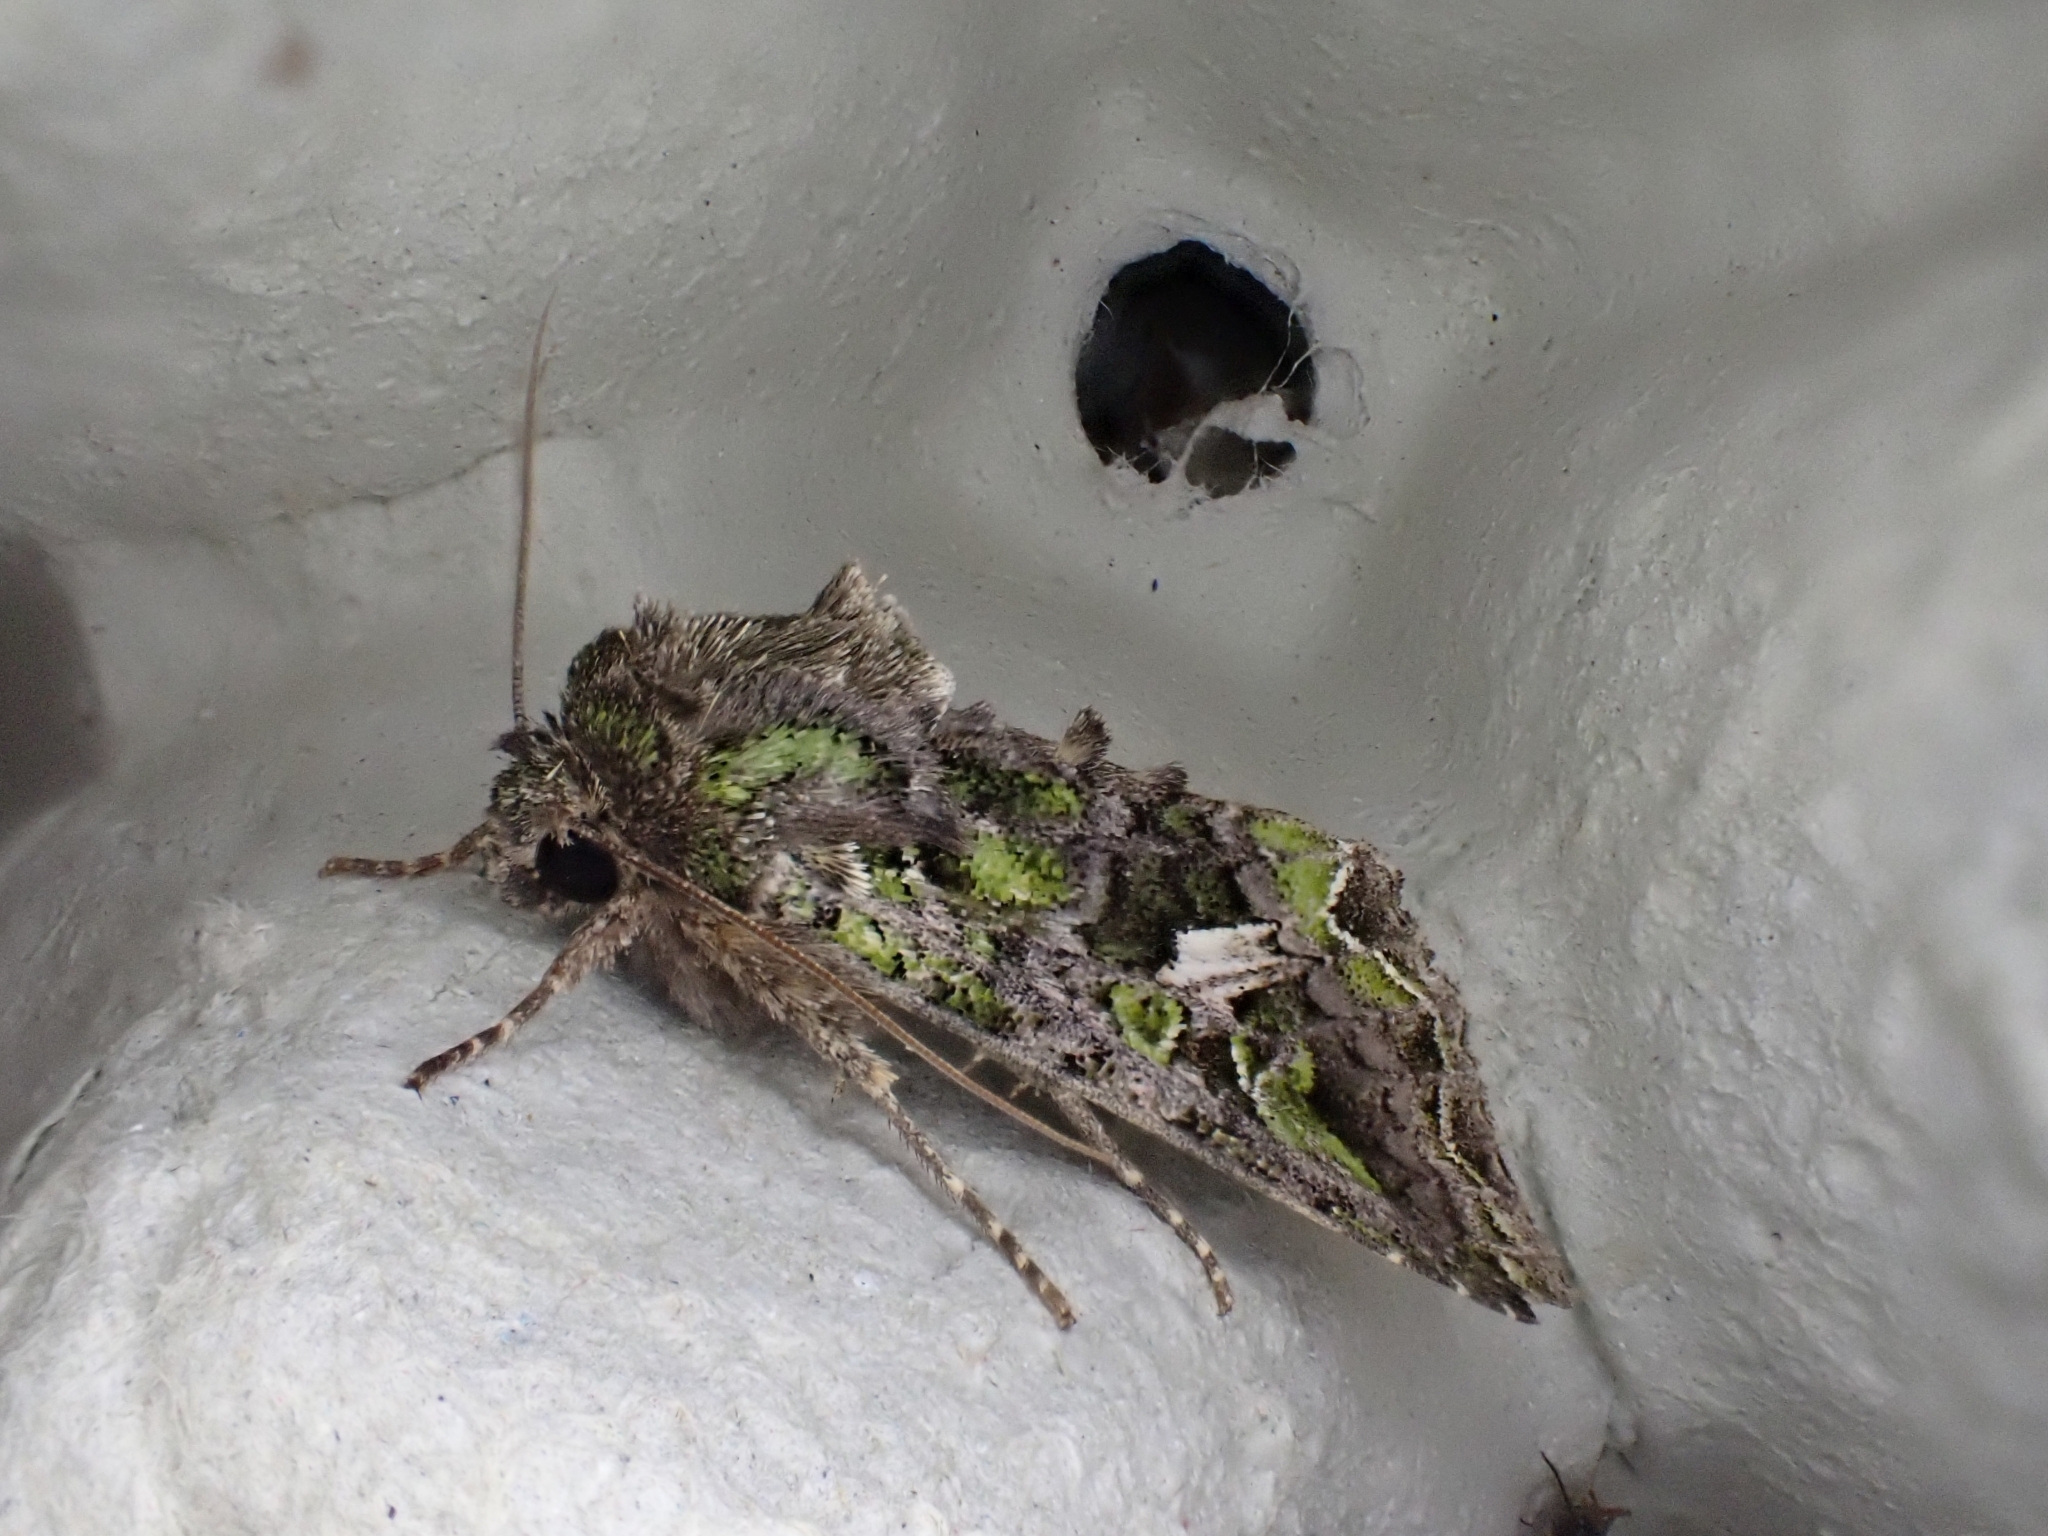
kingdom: Animalia
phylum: Arthropoda
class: Insecta
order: Lepidoptera
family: Noctuidae
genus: Trachea
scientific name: Trachea atriplicis
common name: Orache moth
